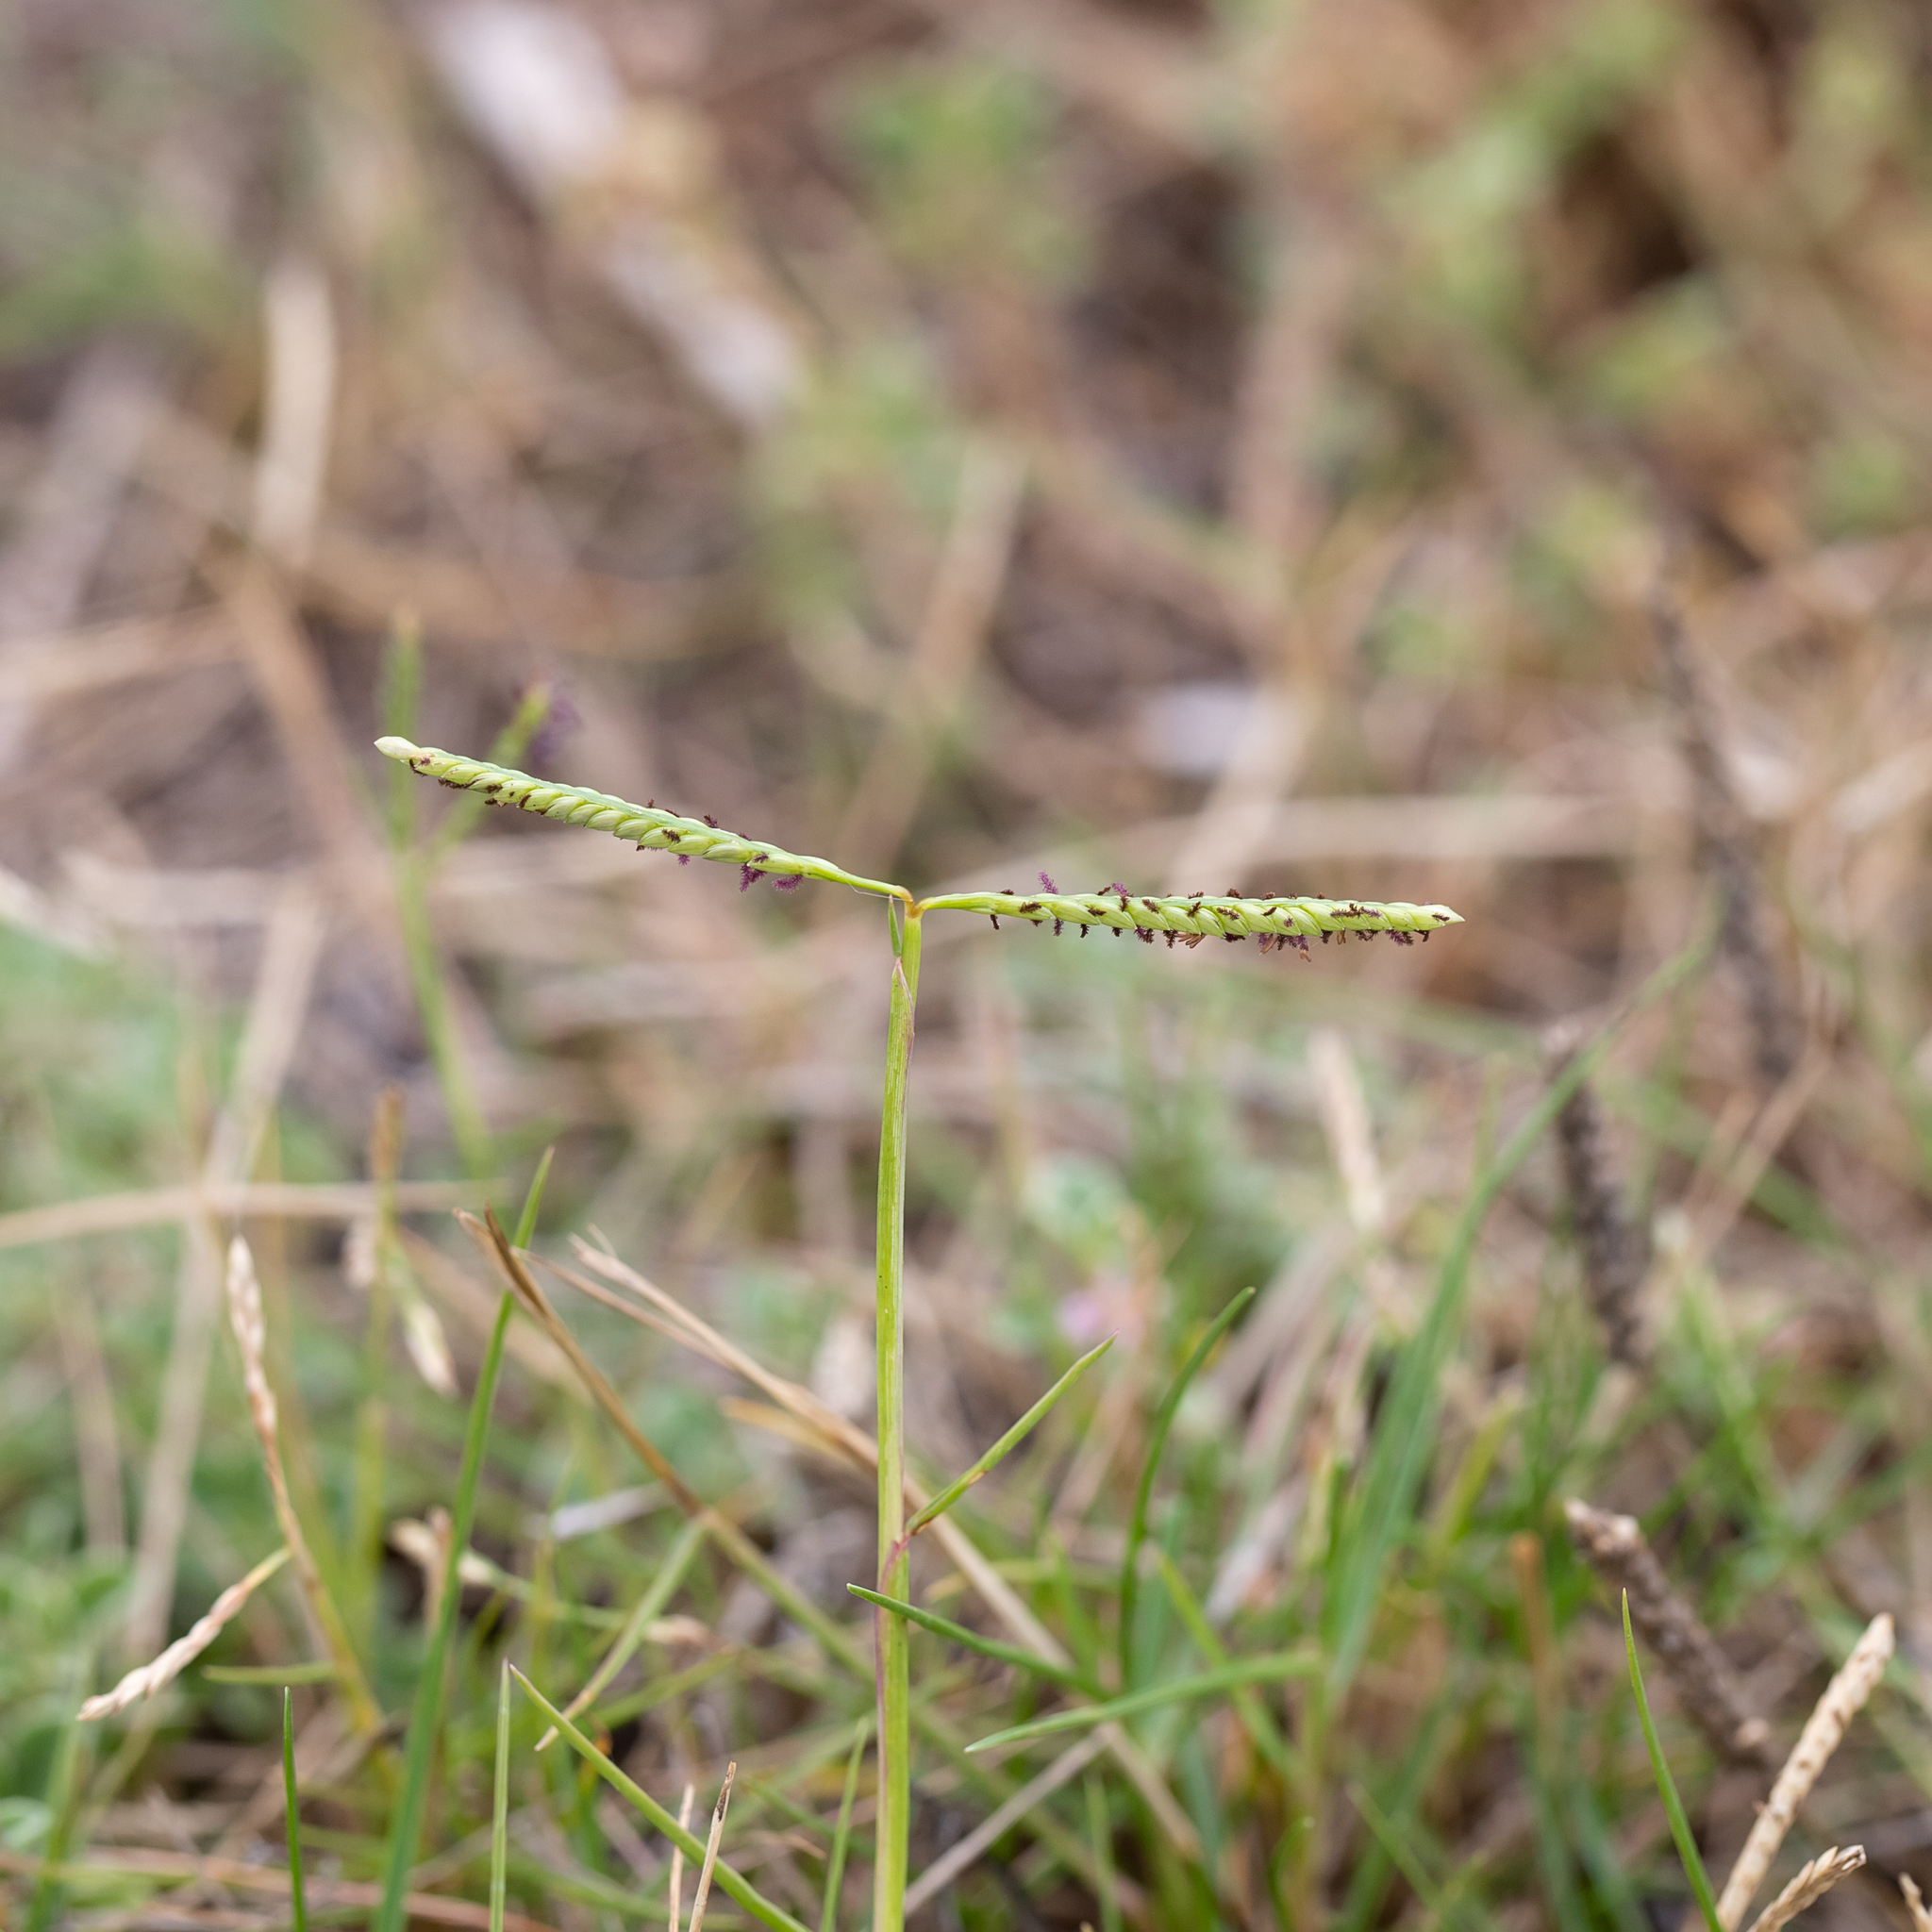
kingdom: Plantae
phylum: Tracheophyta
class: Liliopsida
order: Poales
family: Poaceae
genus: Paspalum
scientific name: Paspalum vaginatum
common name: Seashore paspalum
